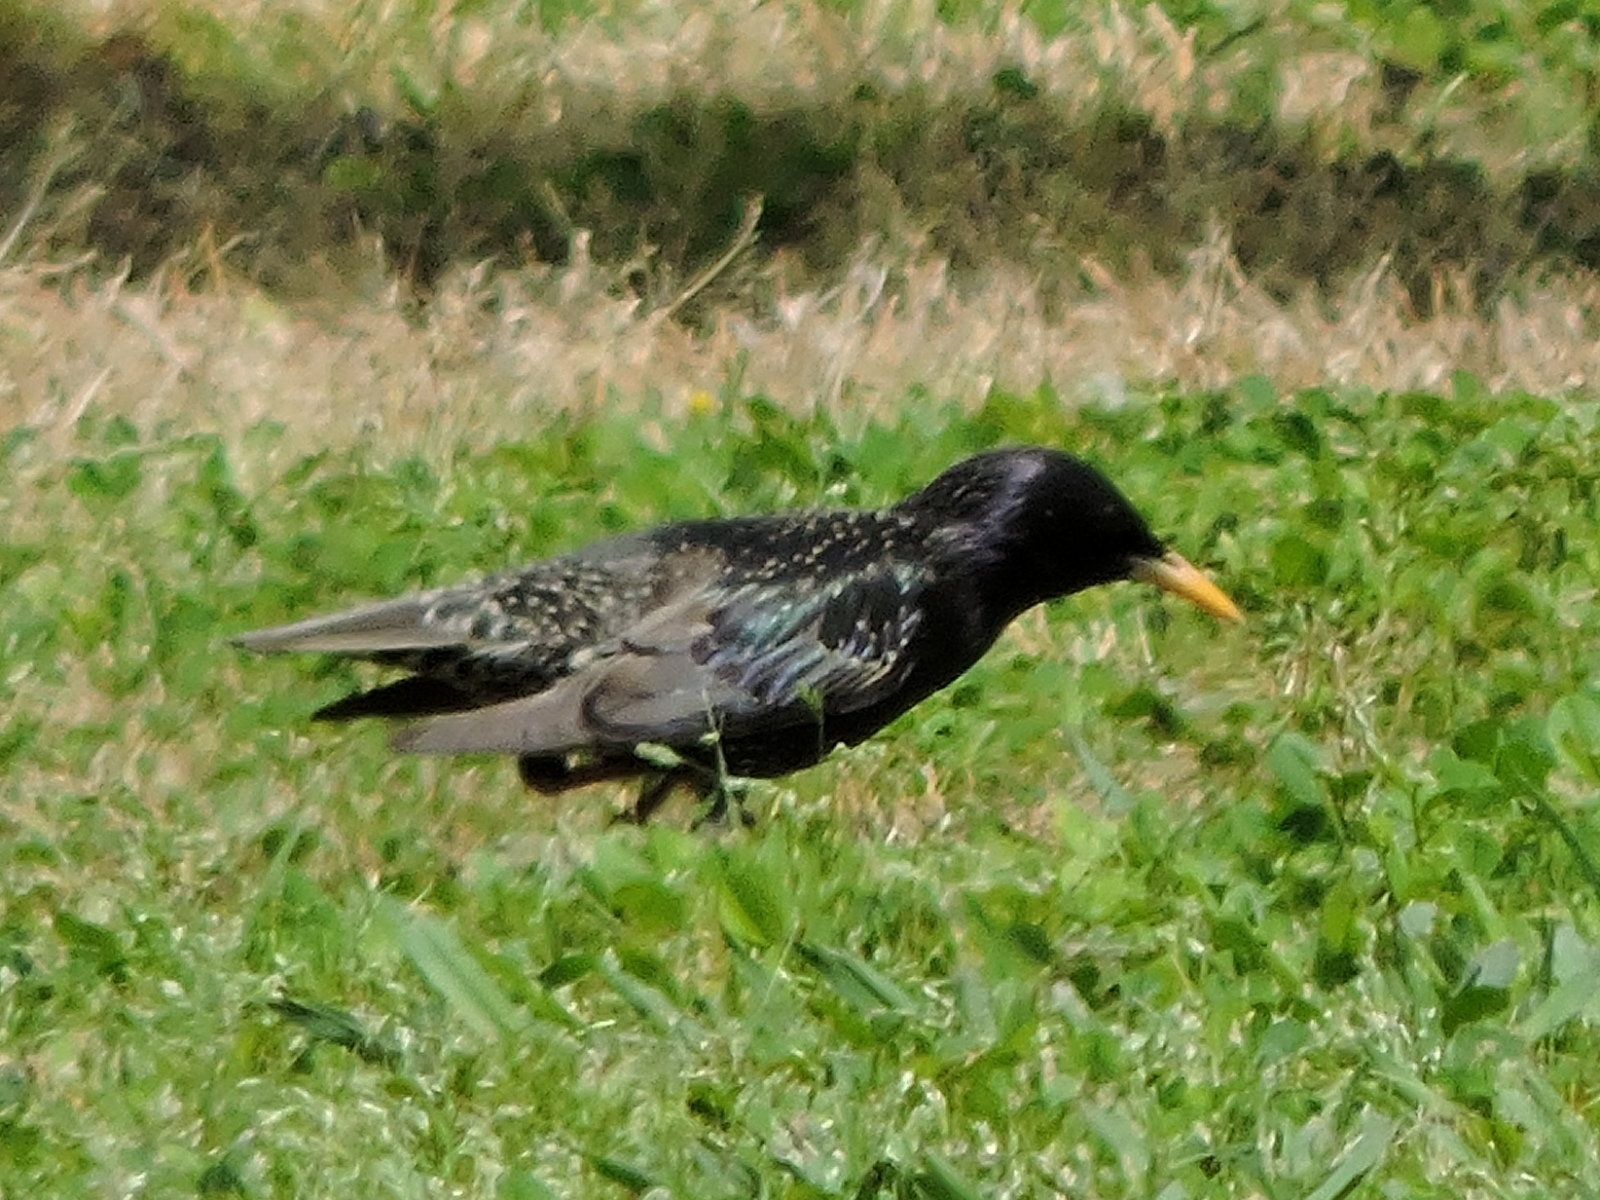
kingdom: Animalia
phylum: Chordata
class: Aves
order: Passeriformes
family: Sturnidae
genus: Sturnus
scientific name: Sturnus vulgaris
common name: Common starling
